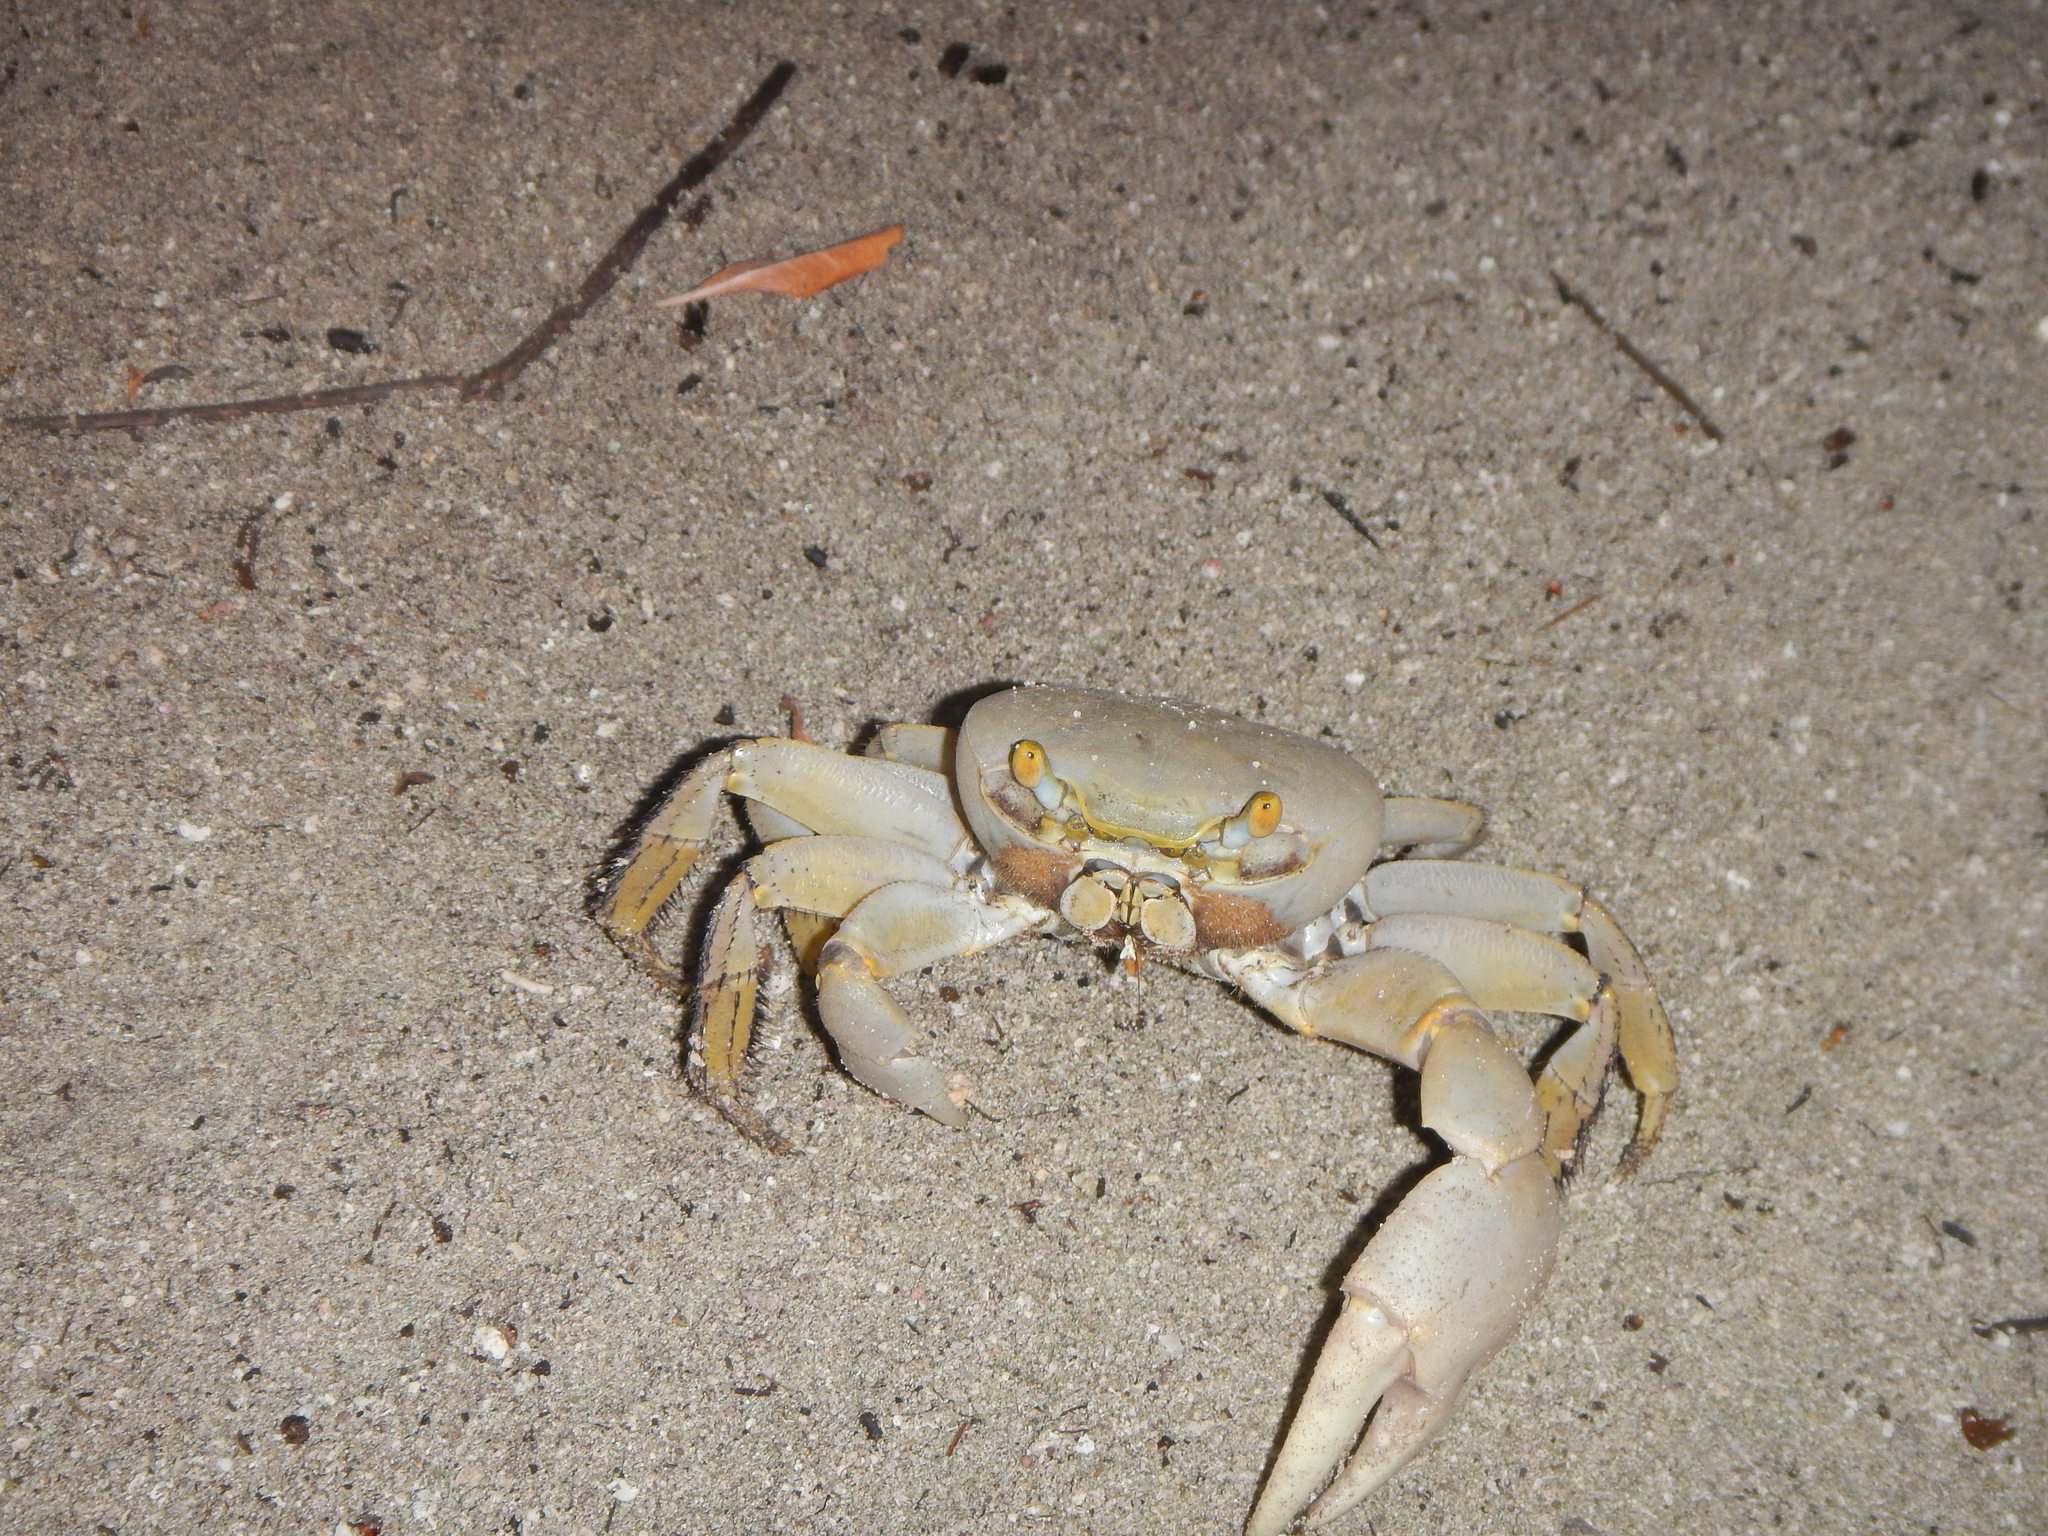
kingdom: Animalia
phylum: Arthropoda
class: Malacostraca
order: Decapoda
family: Gecarcinidae
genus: Cardisoma
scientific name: Cardisoma guanhumi
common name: Great land crab
